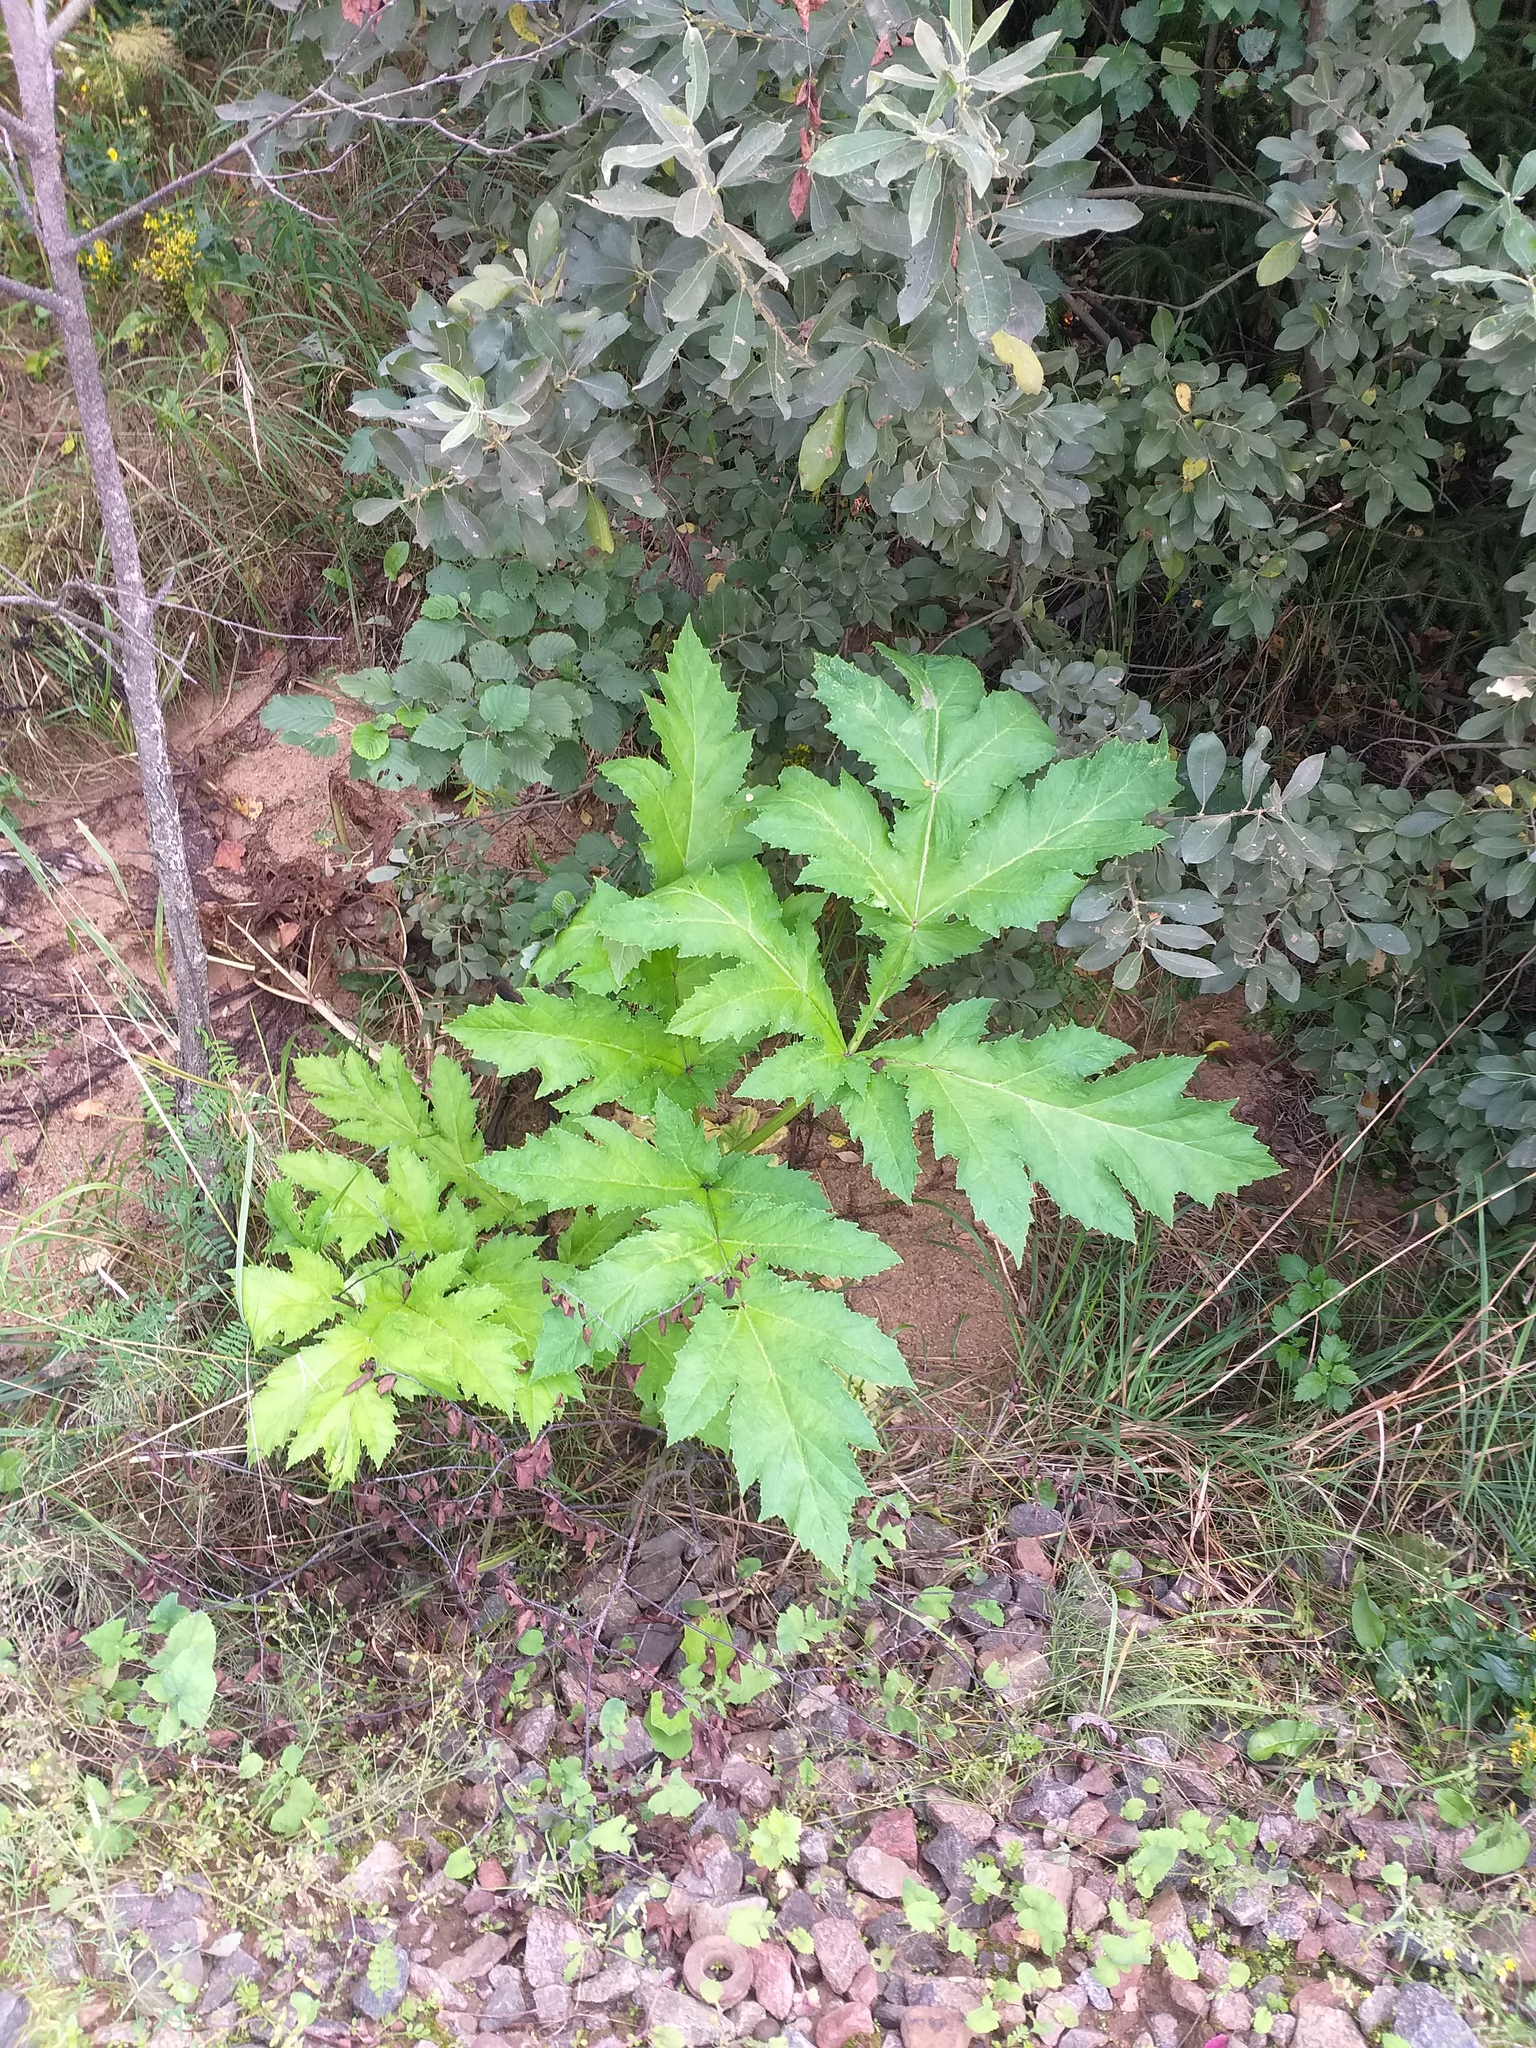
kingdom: Plantae
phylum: Tracheophyta
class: Magnoliopsida
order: Apiales
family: Apiaceae
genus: Heracleum
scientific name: Heracleum sosnowskyi
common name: Sosnowsky's hogweed
